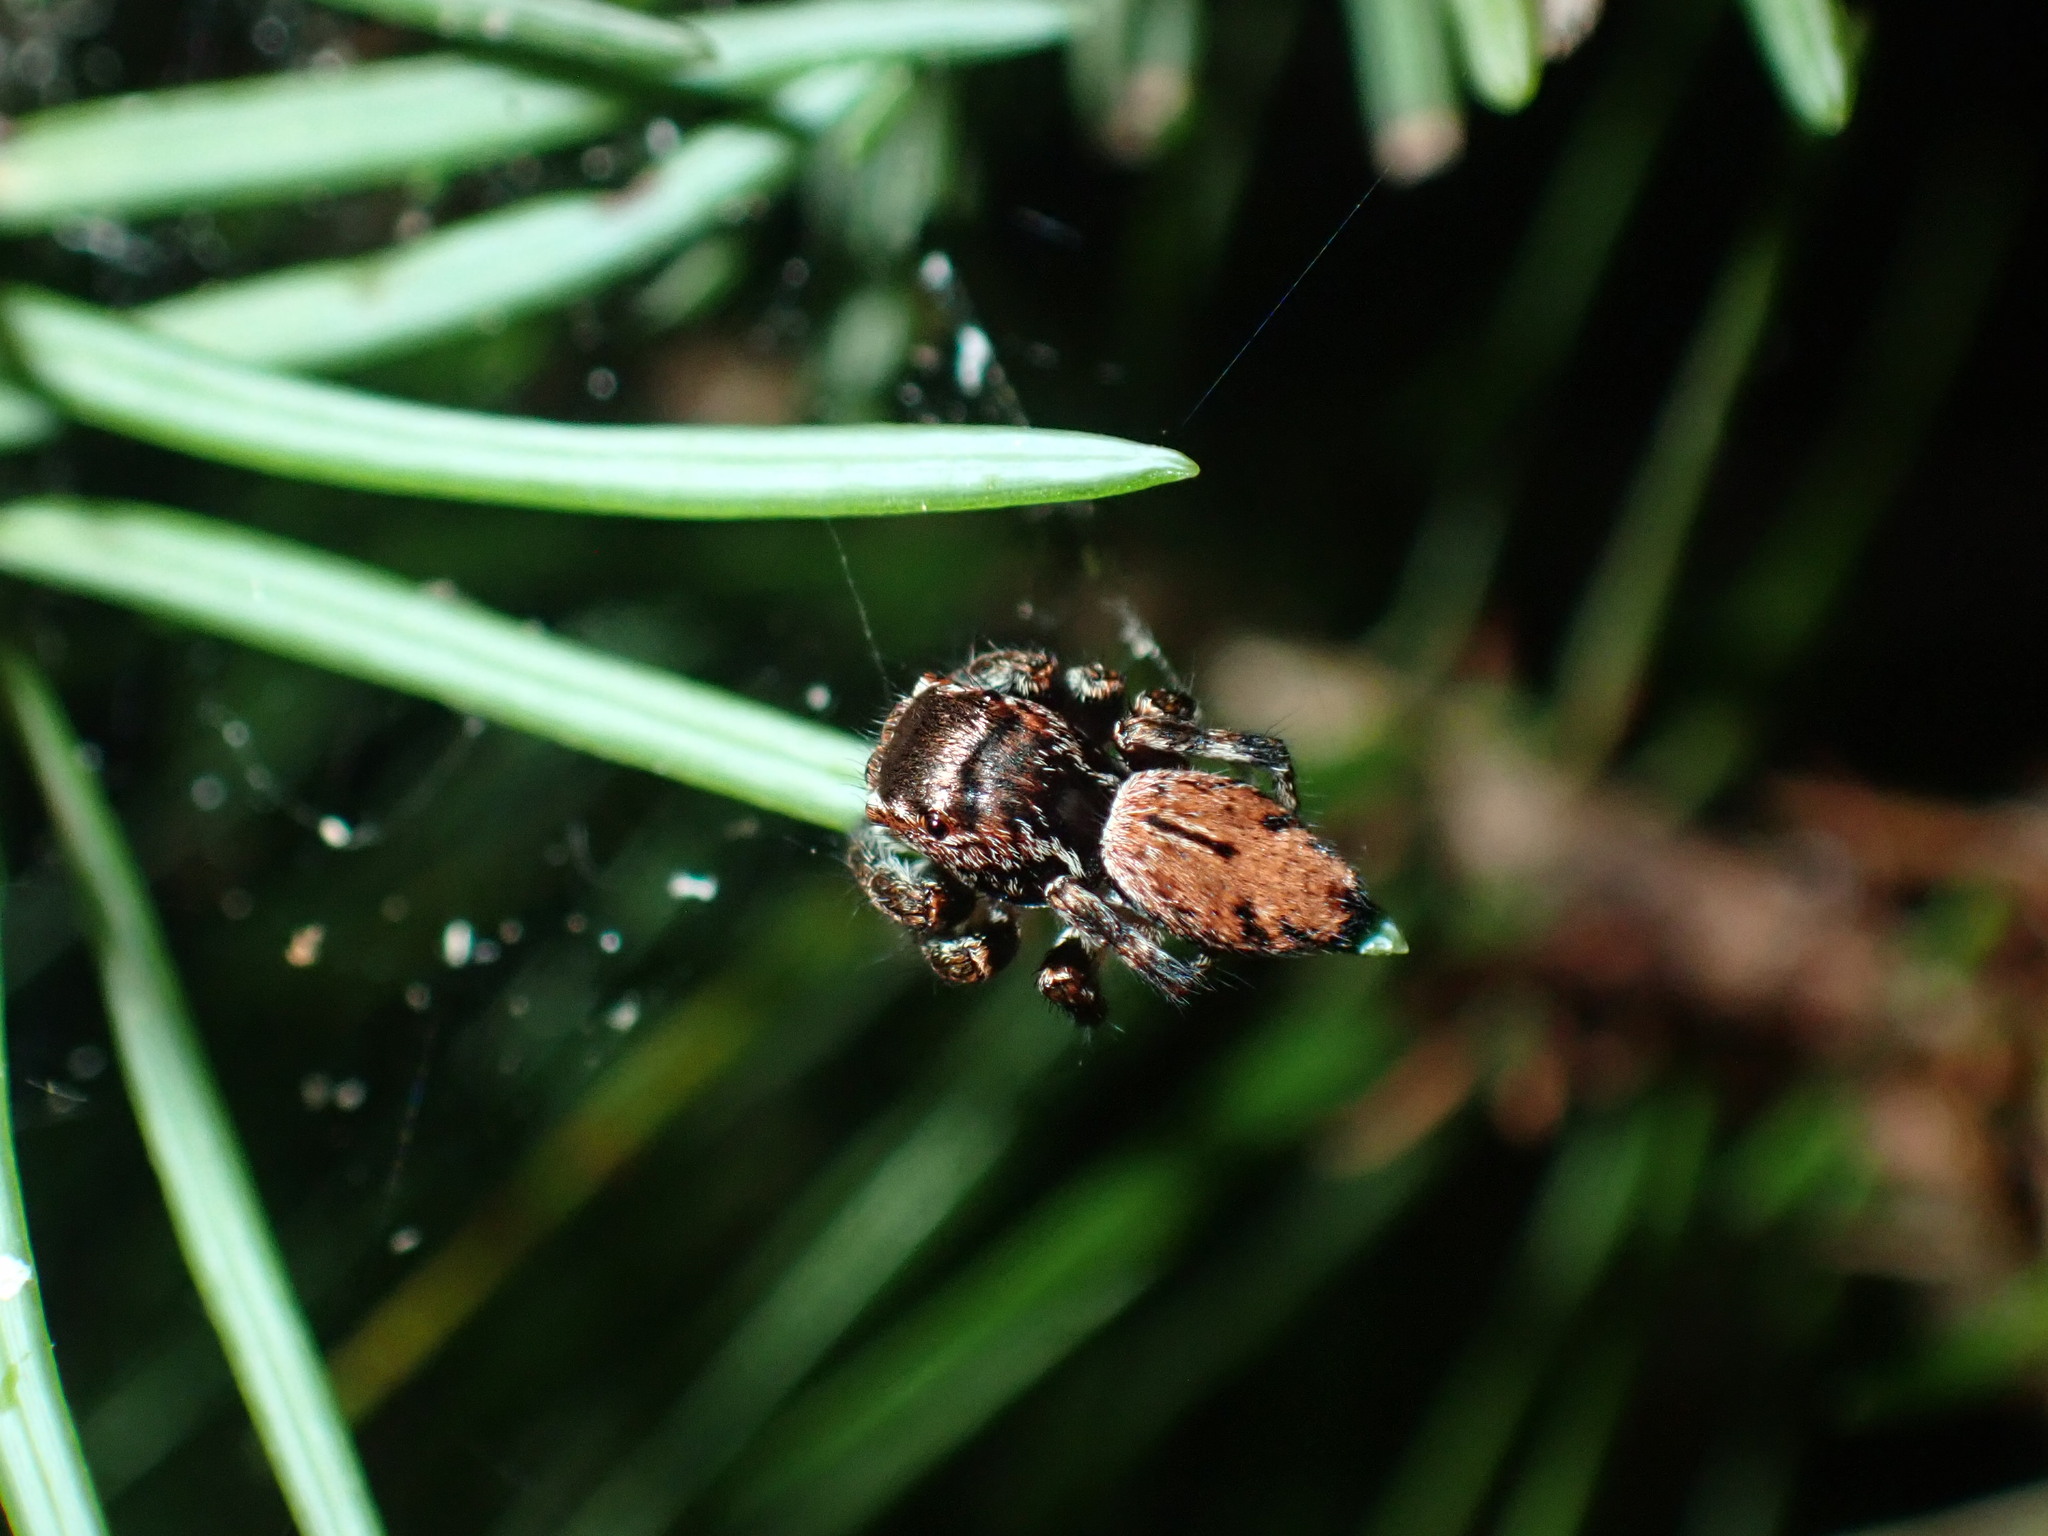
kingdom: Animalia
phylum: Arthropoda
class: Arachnida
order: Araneae
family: Salticidae
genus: Evarcha
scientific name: Evarcha proszynskii
